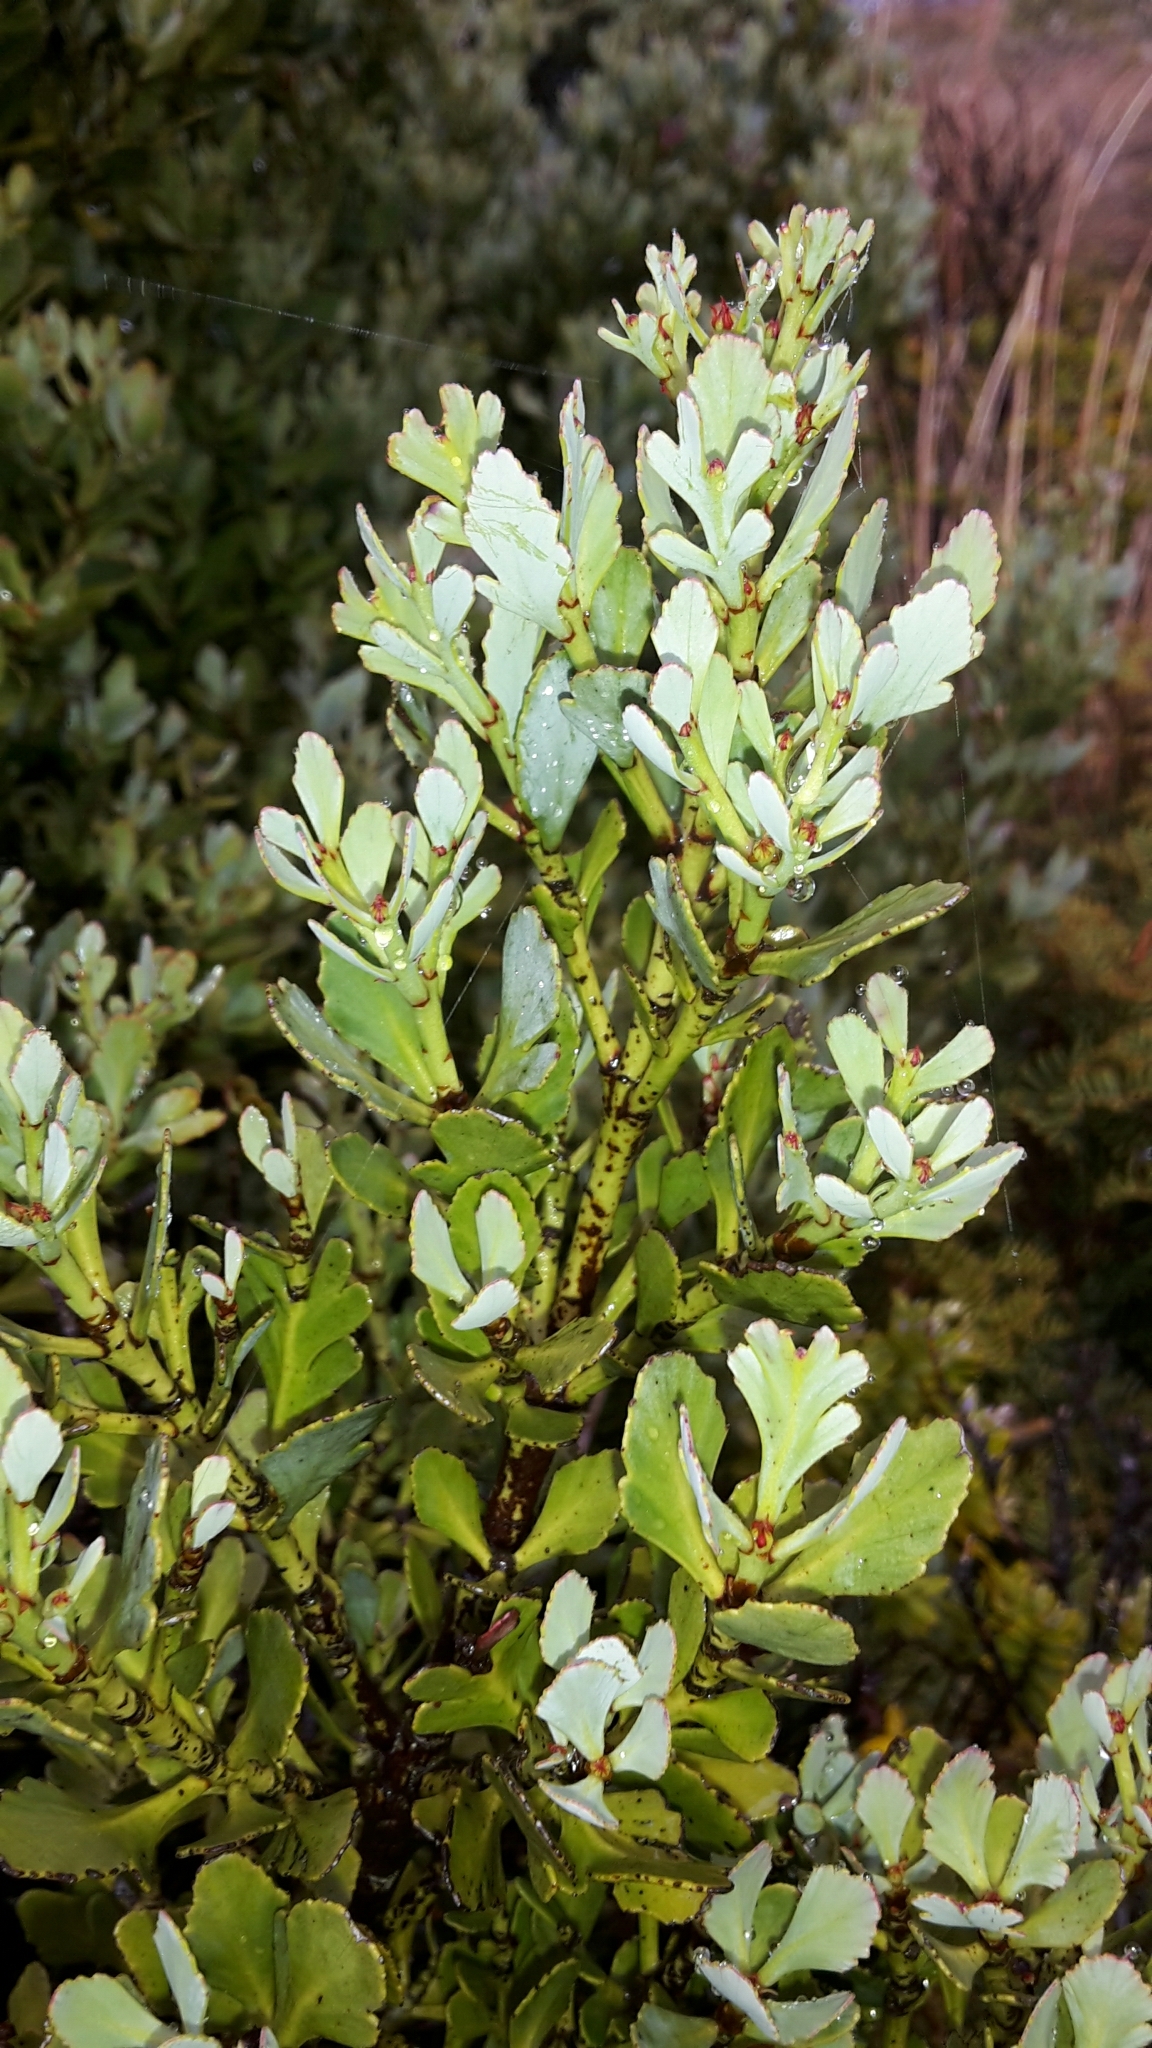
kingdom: Plantae
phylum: Tracheophyta
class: Pinopsida
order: Pinales
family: Phyllocladaceae
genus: Phyllocladus
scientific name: Phyllocladus trichomanoides
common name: Celery pine
